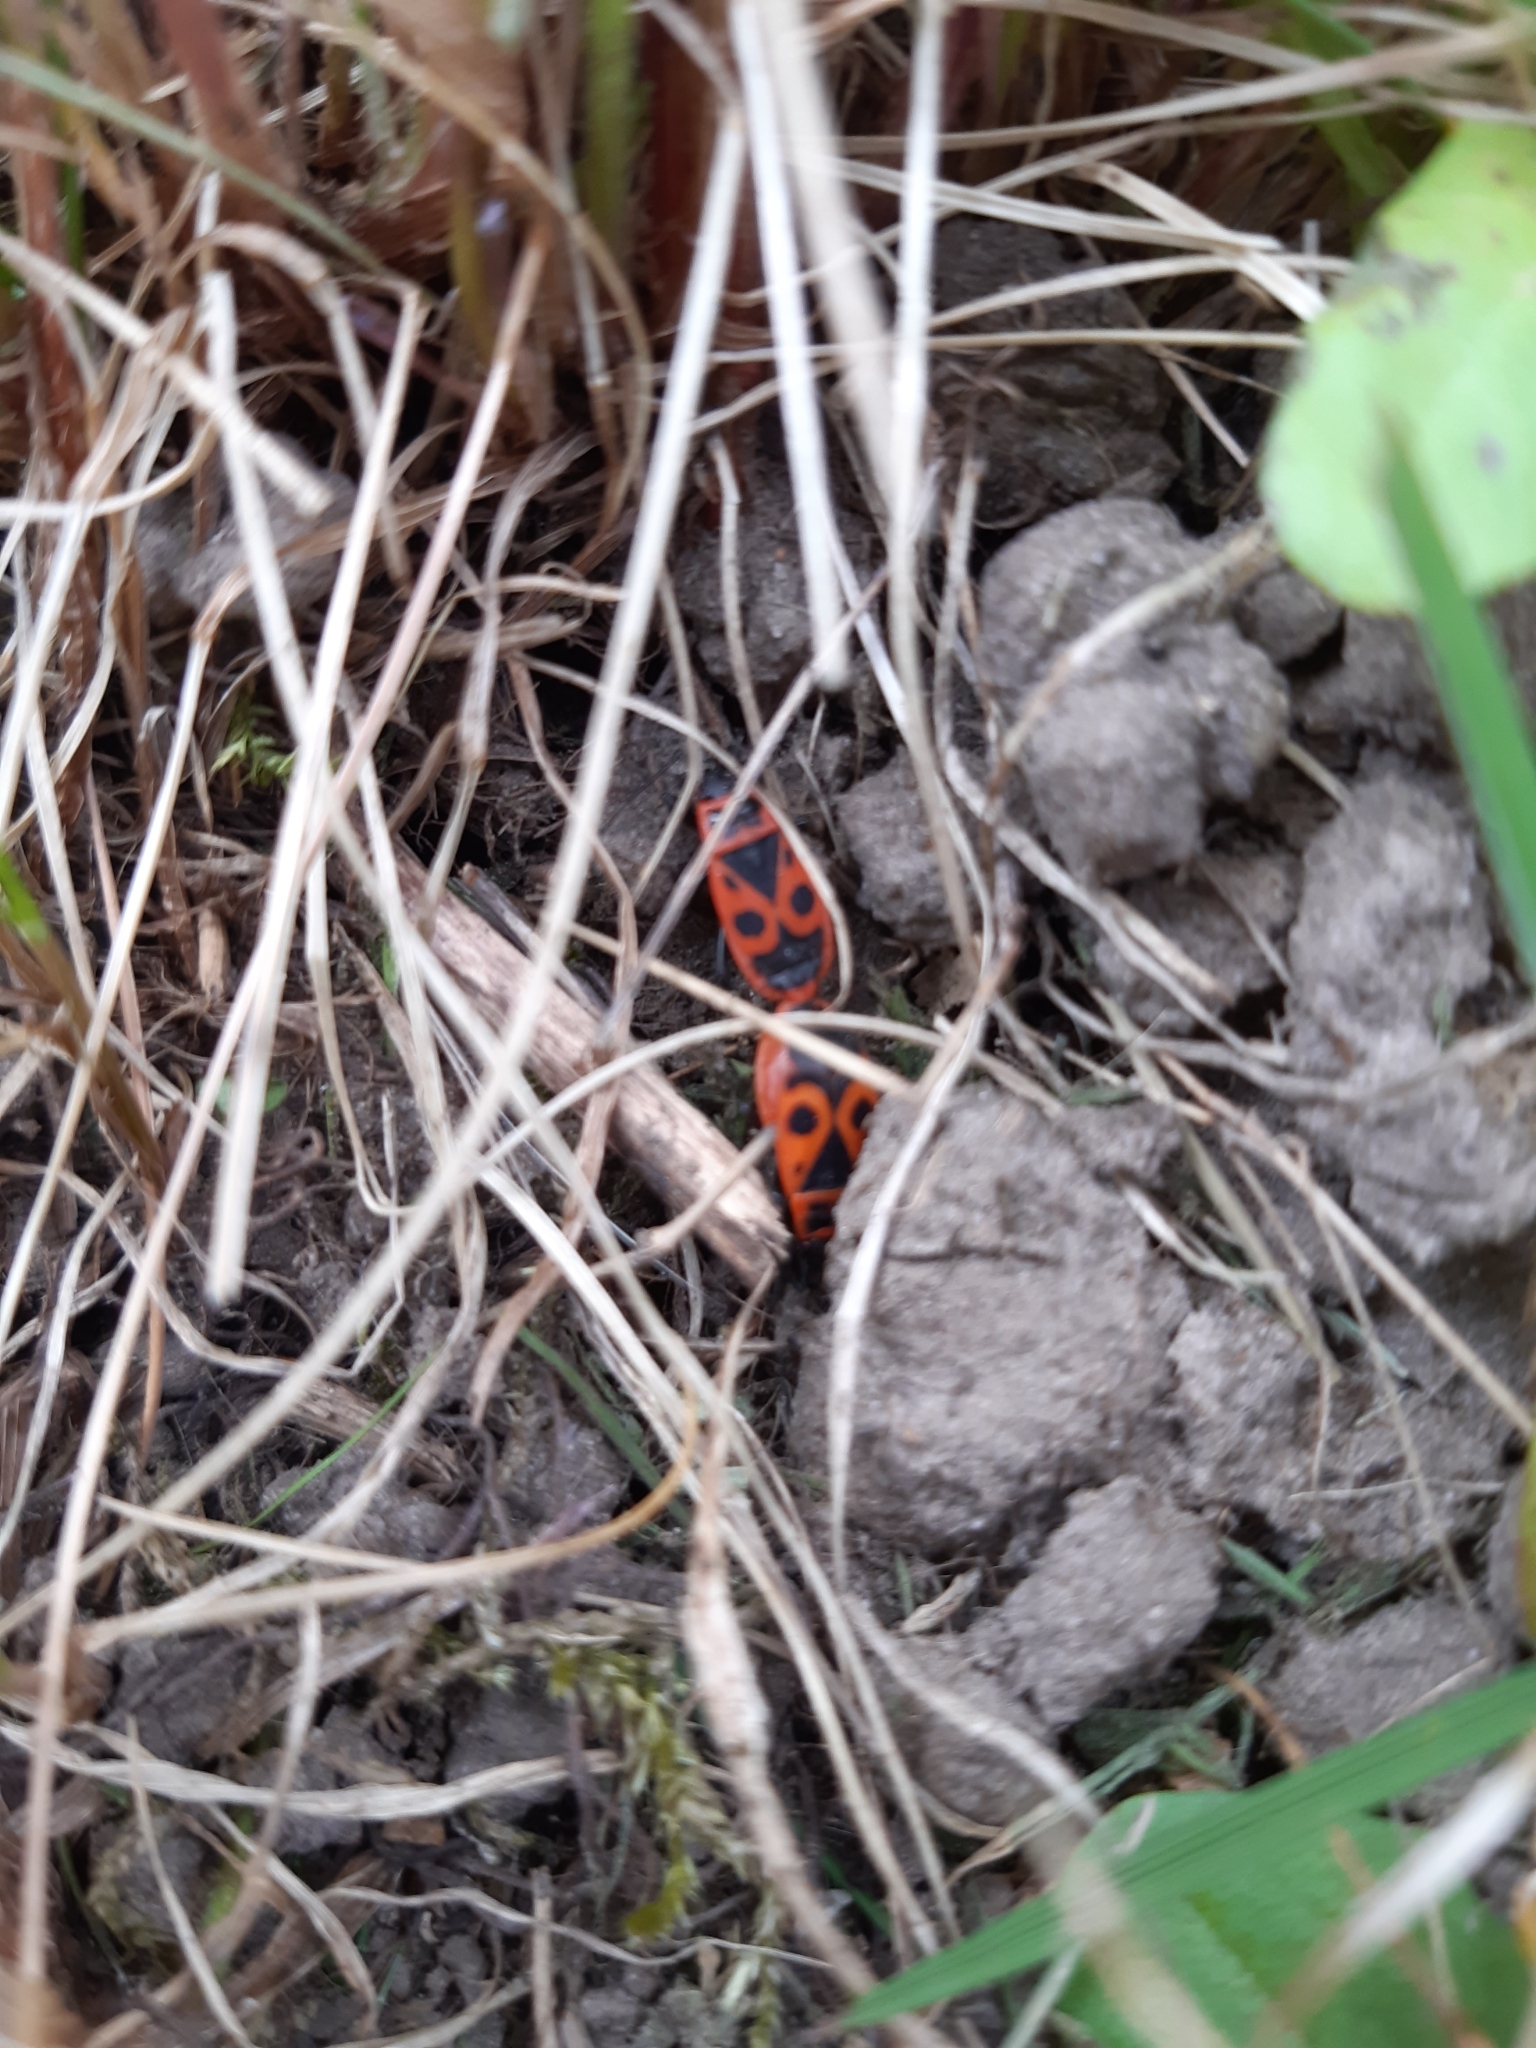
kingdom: Animalia
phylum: Arthropoda
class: Insecta
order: Hemiptera
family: Pyrrhocoridae
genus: Pyrrhocoris
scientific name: Pyrrhocoris apterus
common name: Firebug
